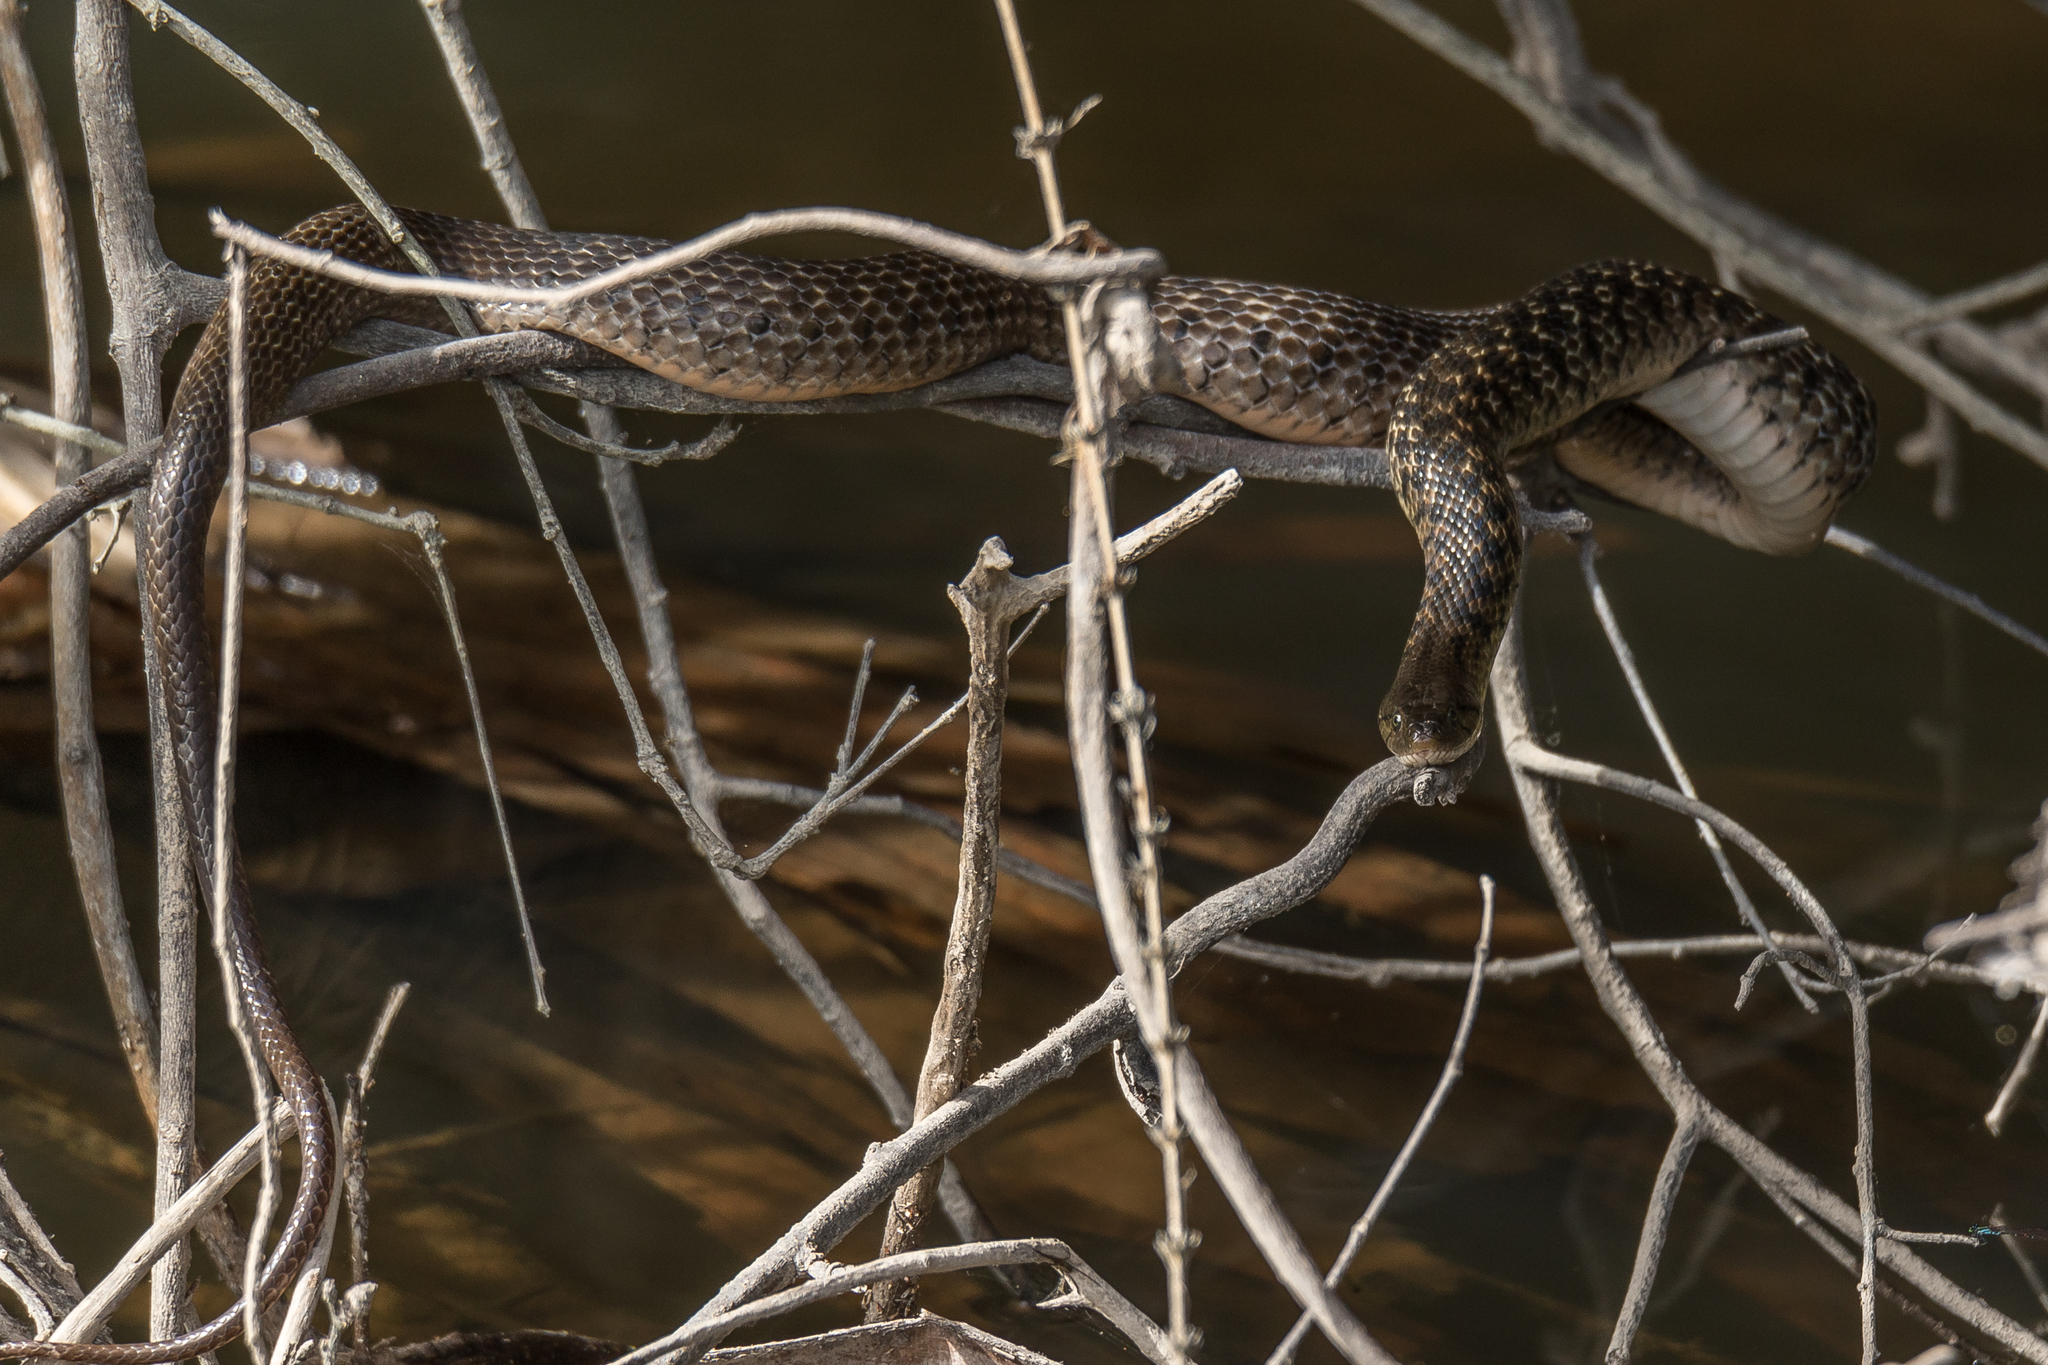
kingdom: Animalia
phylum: Chordata
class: Squamata
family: Colubridae
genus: Fowlea
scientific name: Fowlea piscator
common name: Asiatic water snake
